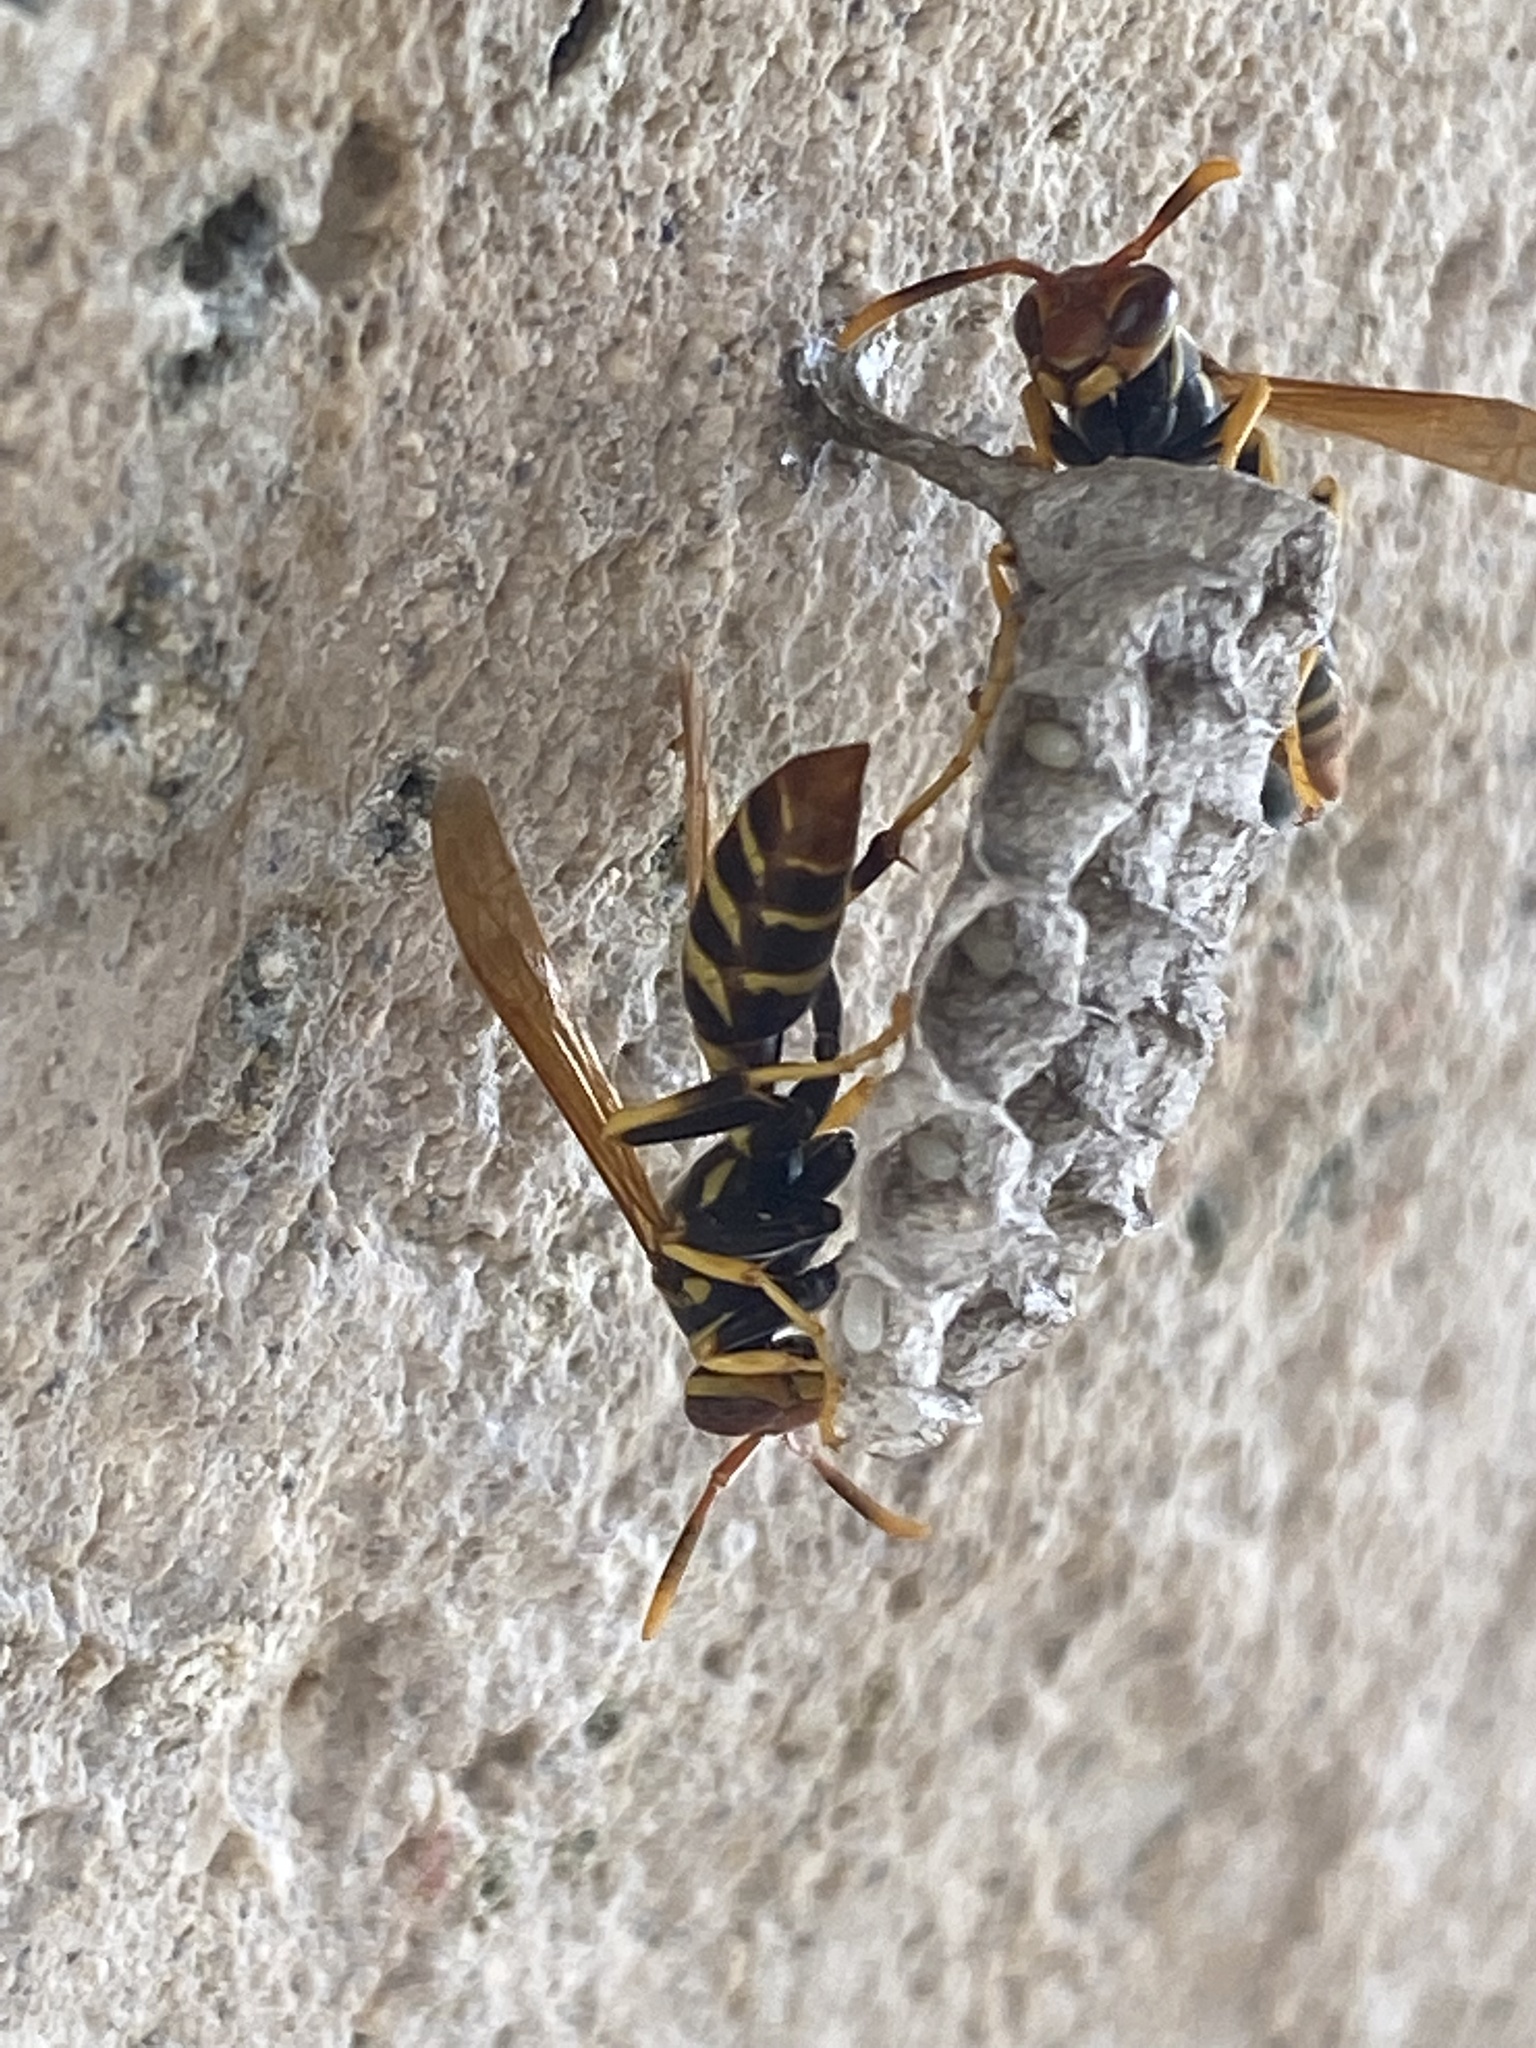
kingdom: Animalia
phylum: Arthropoda
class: Insecta
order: Hymenoptera
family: Eumenidae
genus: Polistes
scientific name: Polistes crinitus
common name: Jack spaniard
